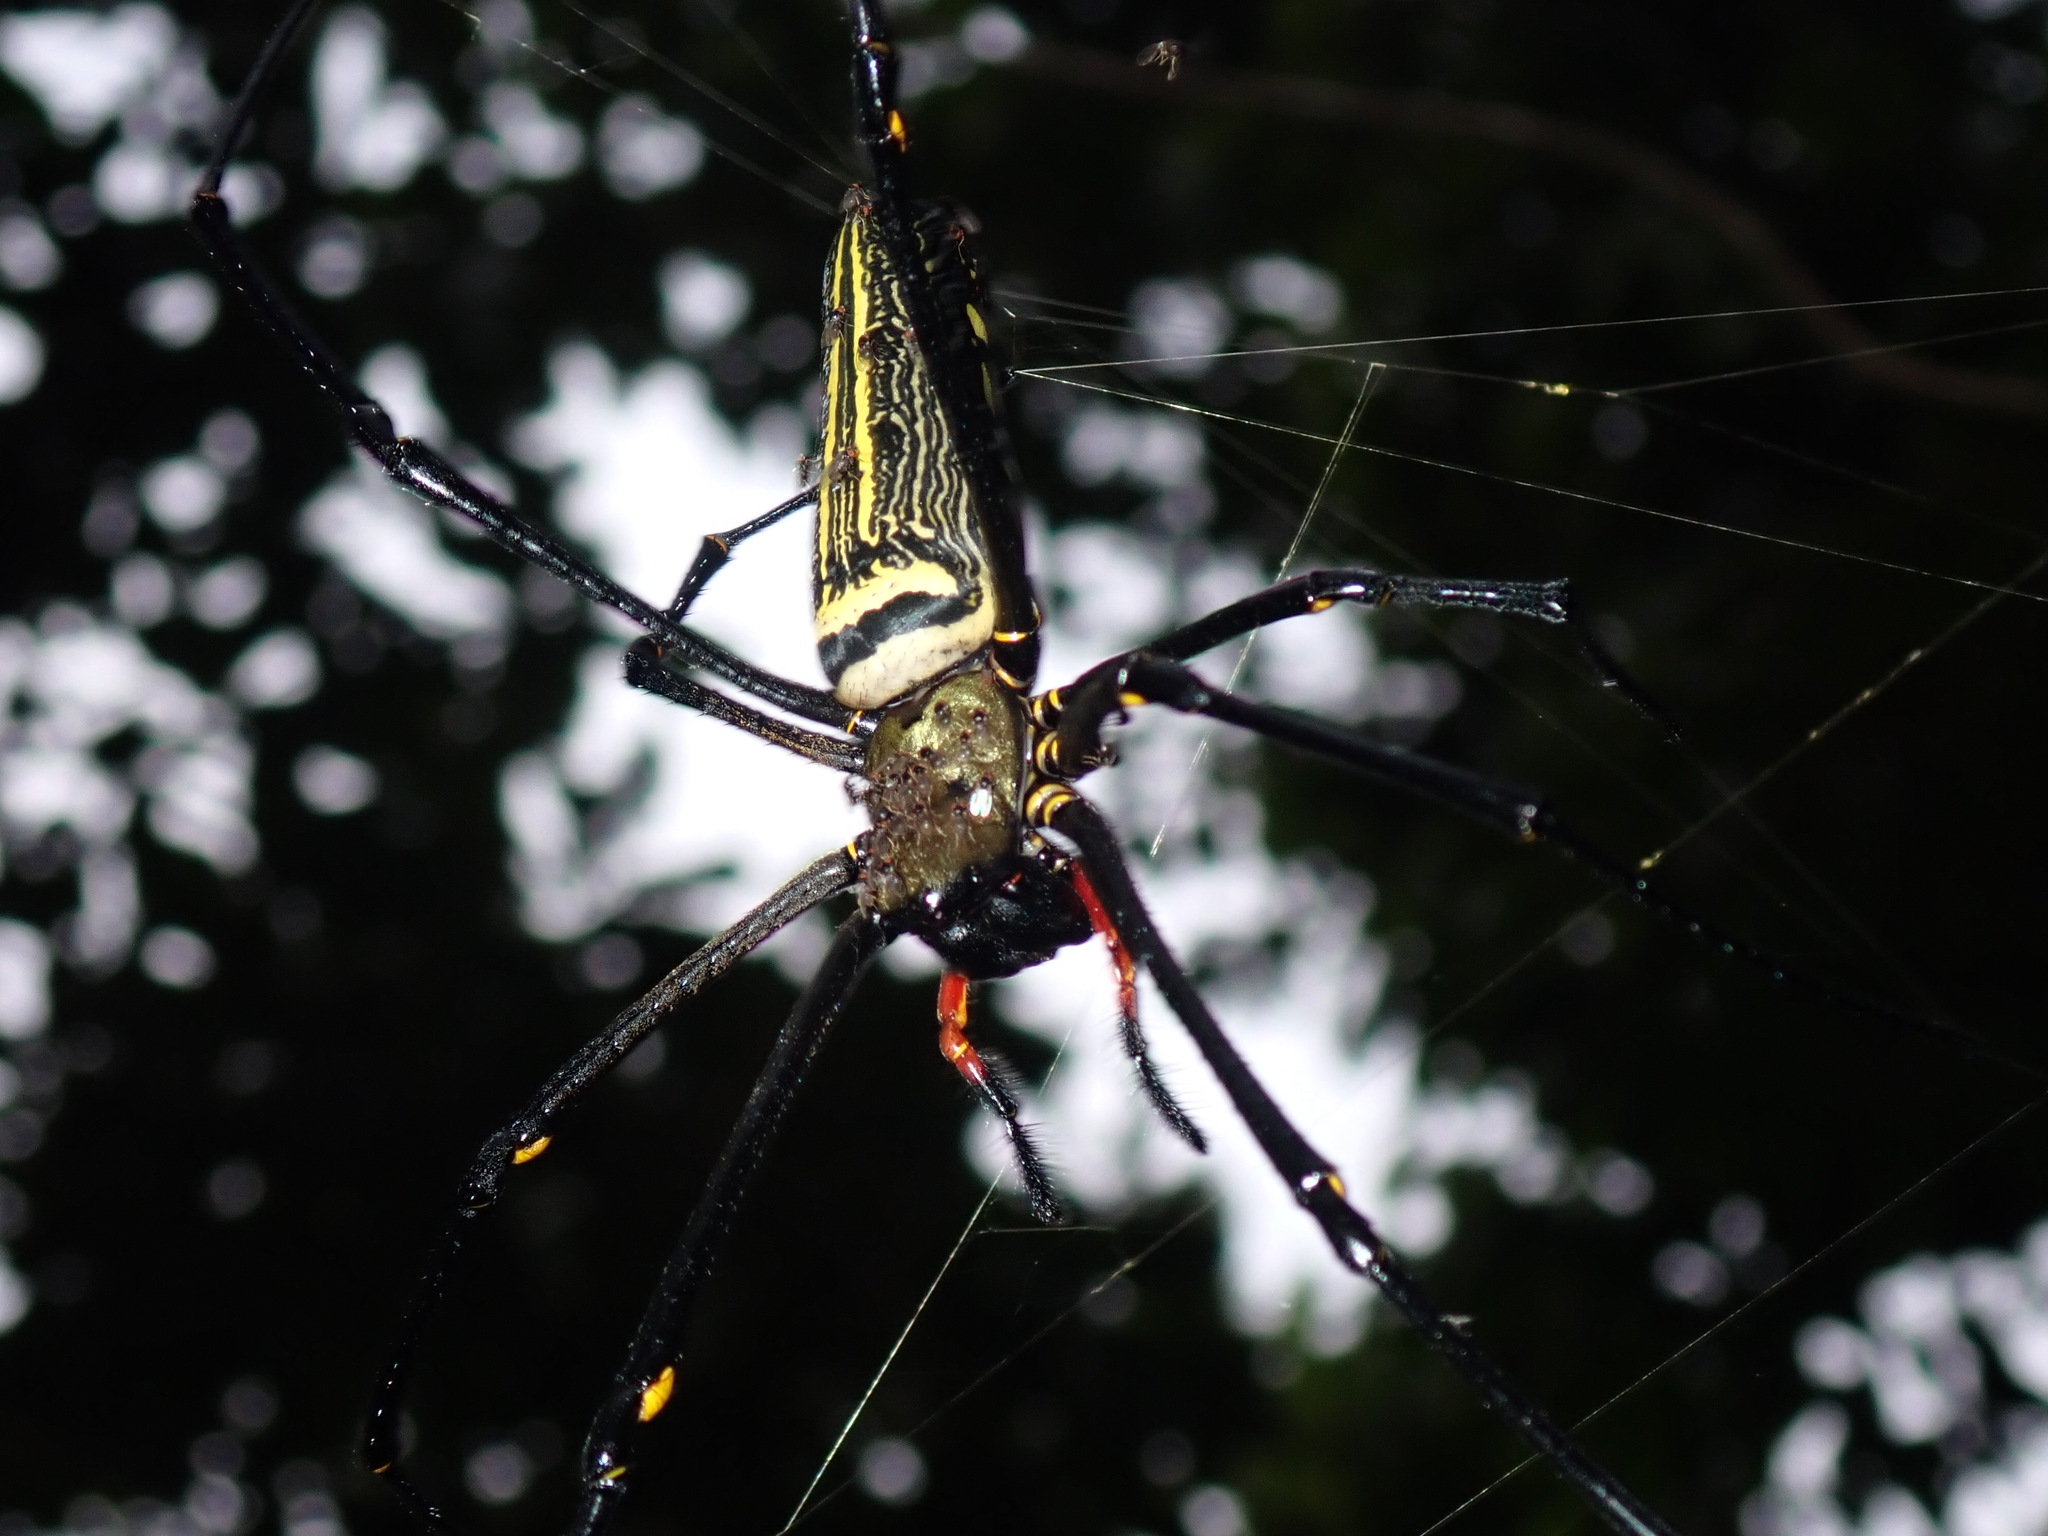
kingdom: Animalia
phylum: Arthropoda
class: Arachnida
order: Araneae
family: Araneidae
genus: Nephila
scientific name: Nephila pilipes
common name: Giant golden orb weaver
